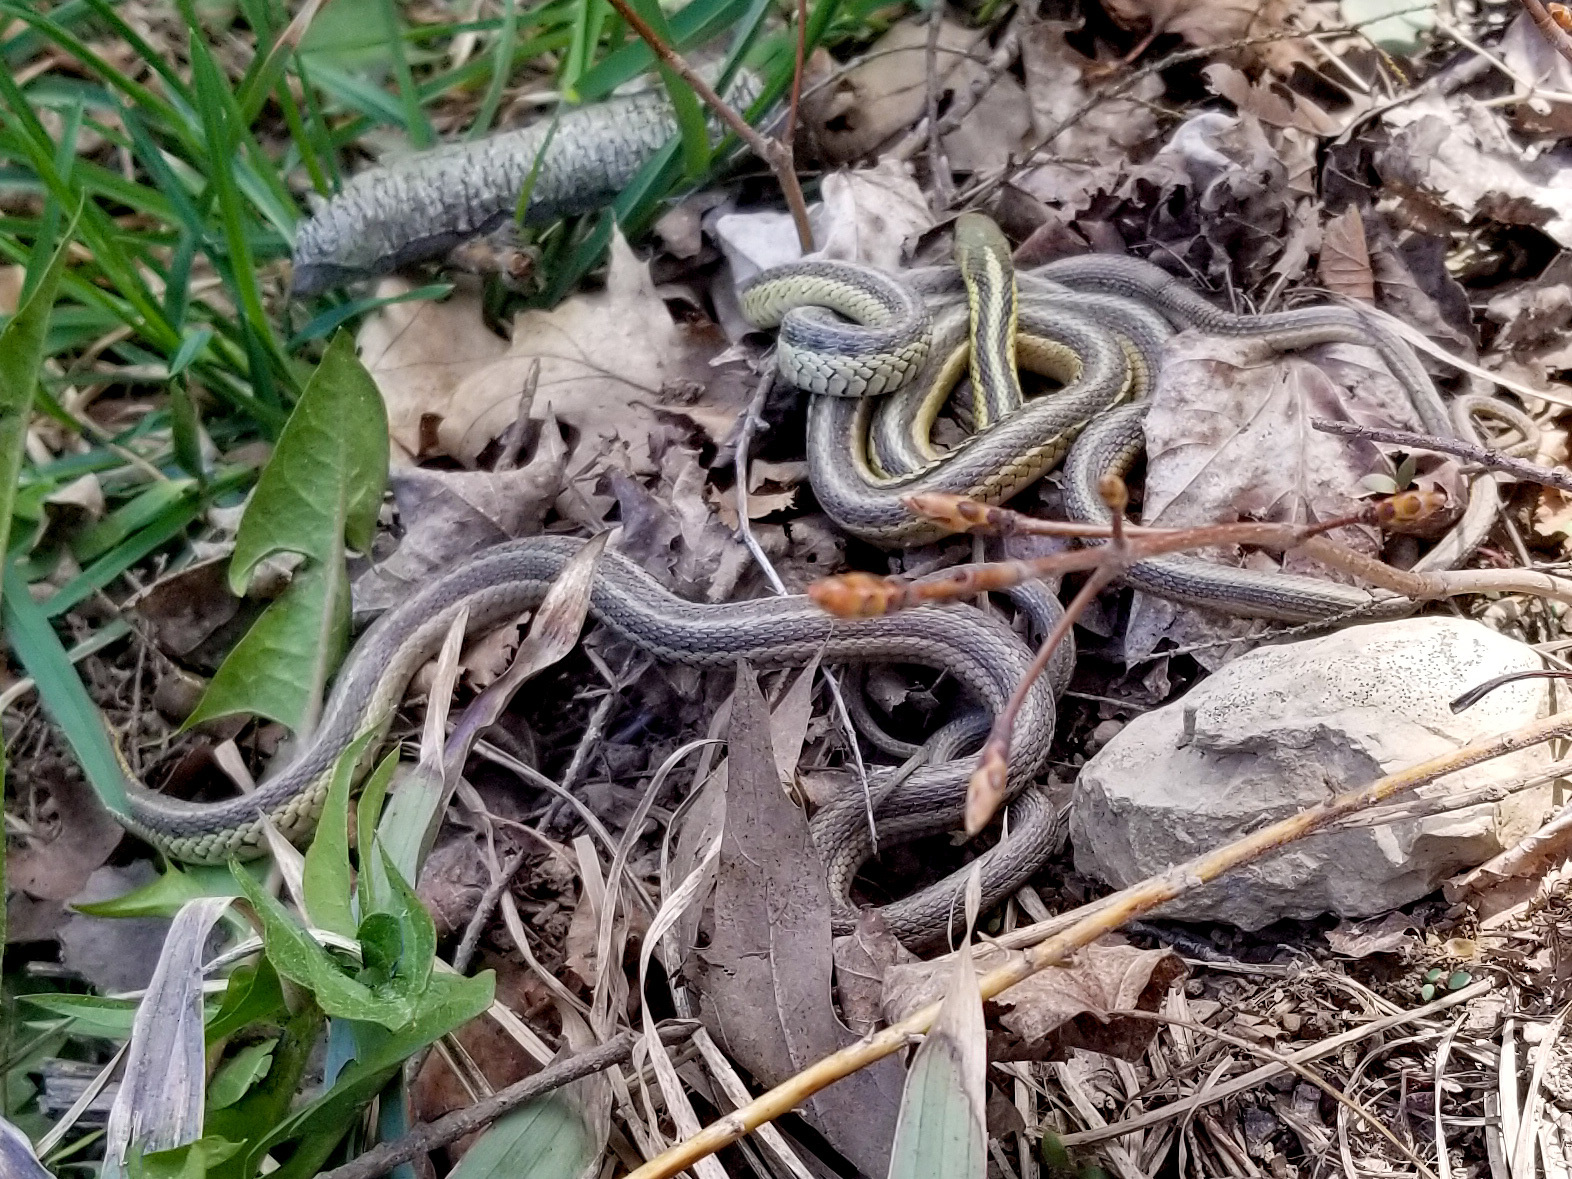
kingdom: Animalia
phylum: Chordata
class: Squamata
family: Colubridae
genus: Thamnophis
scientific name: Thamnophis sirtalis
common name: Common garter snake
